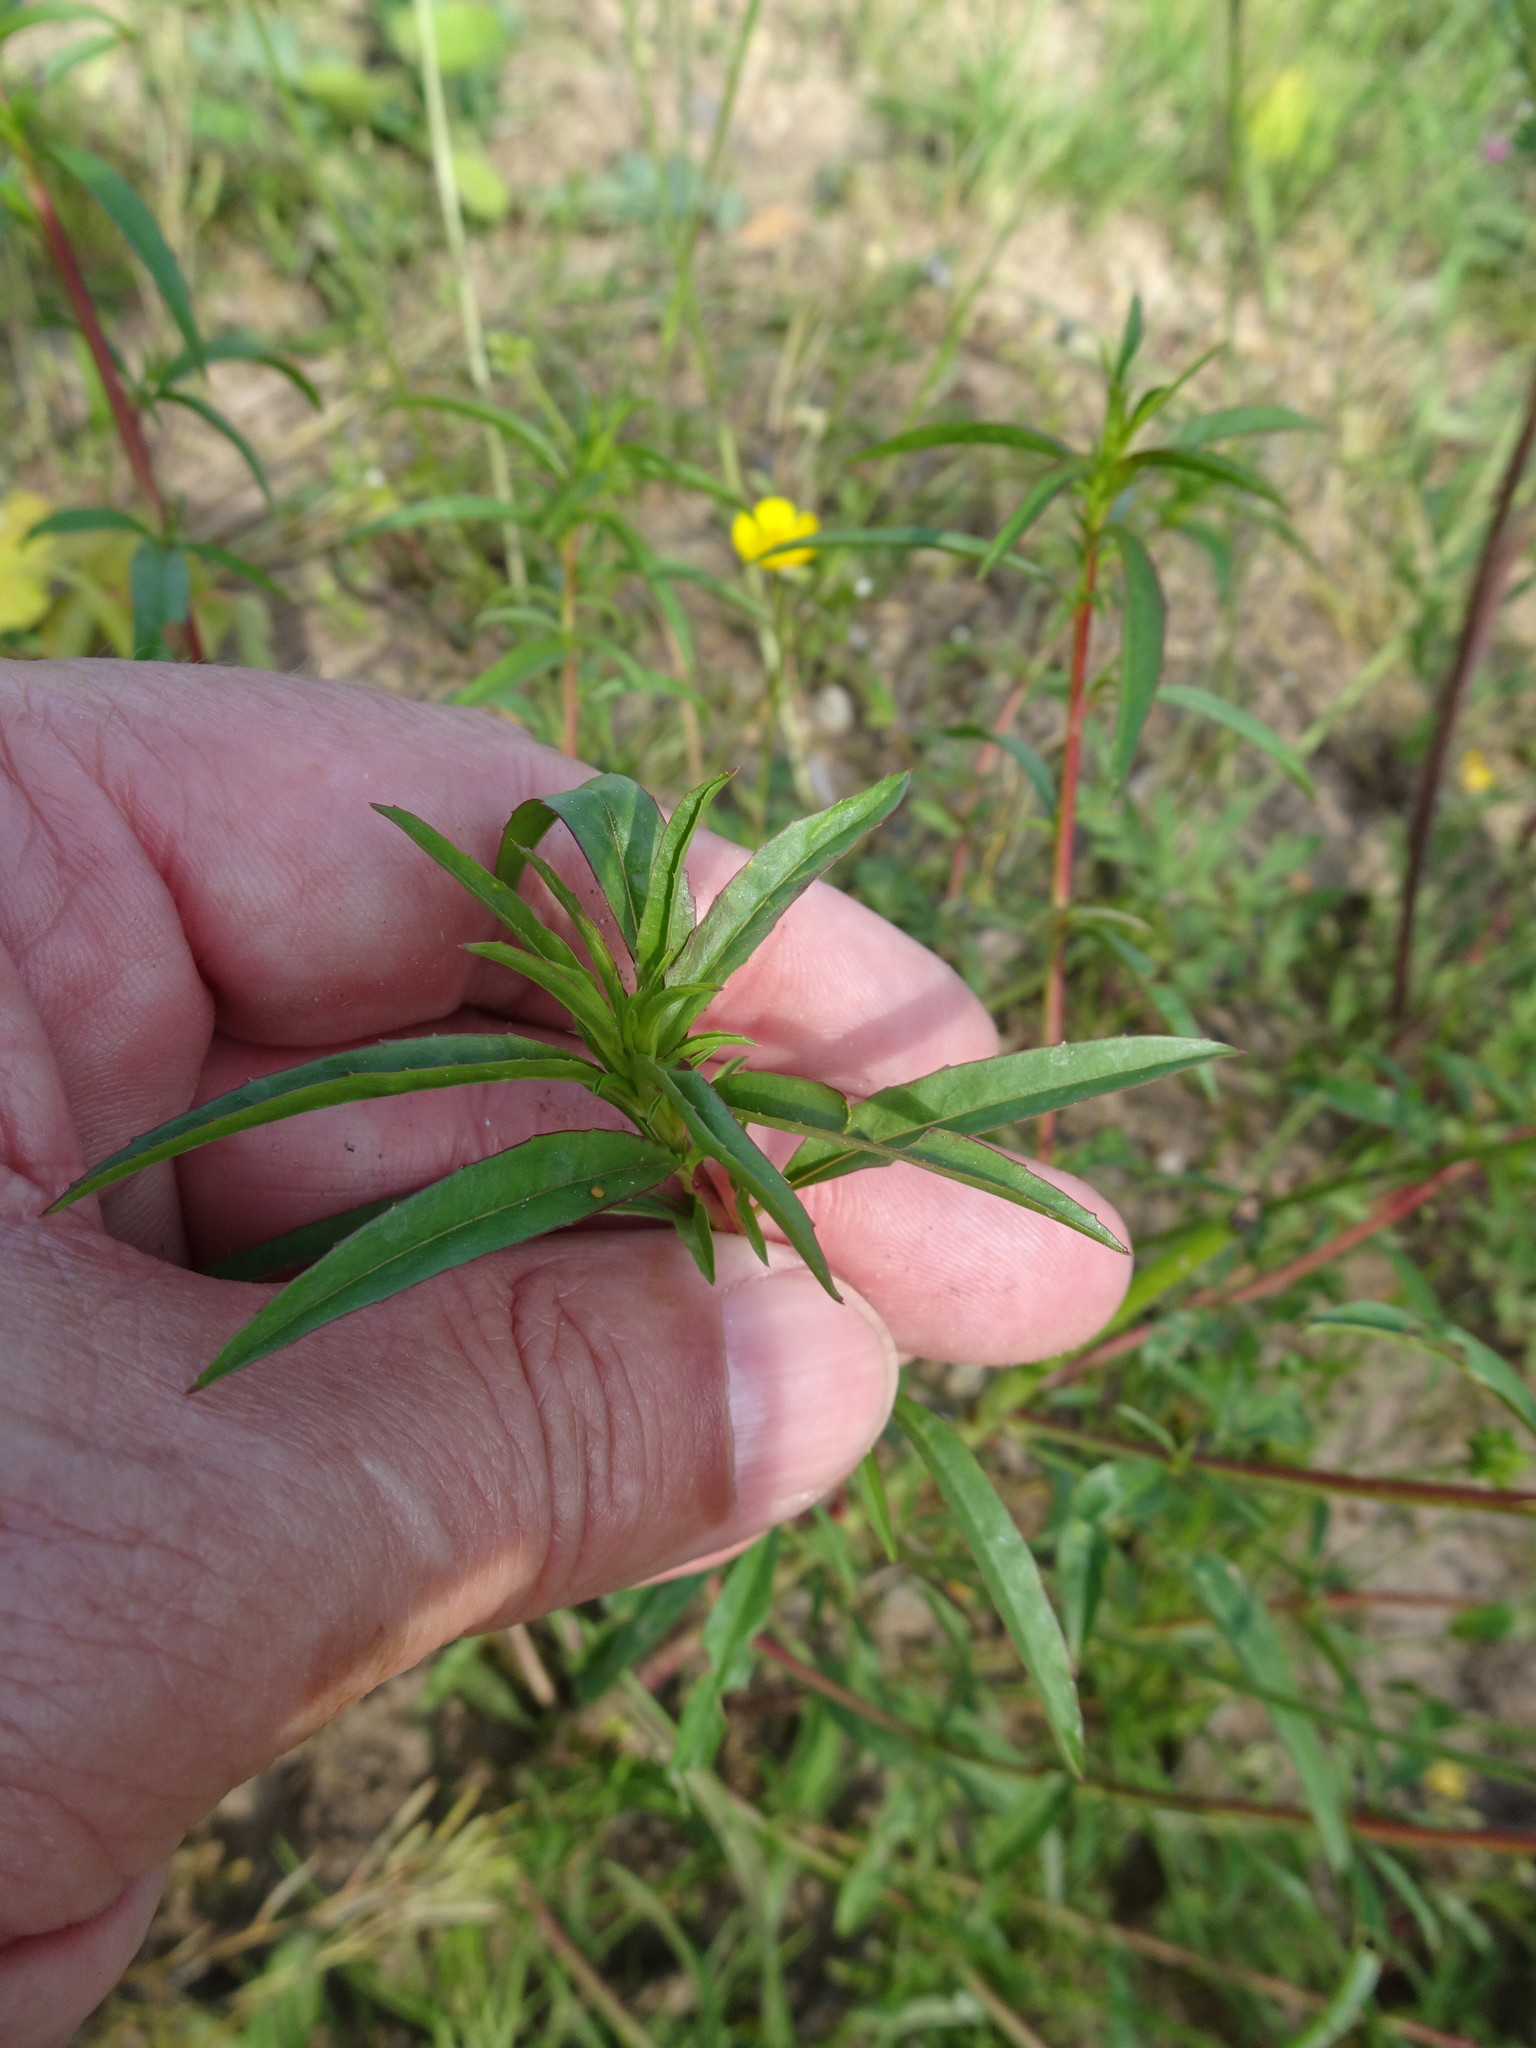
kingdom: Plantae
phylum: Tracheophyta
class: Magnoliopsida
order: Myrtales
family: Onagraceae
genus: Epilobium
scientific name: Epilobium brachycarpum
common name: Annual willowherb
